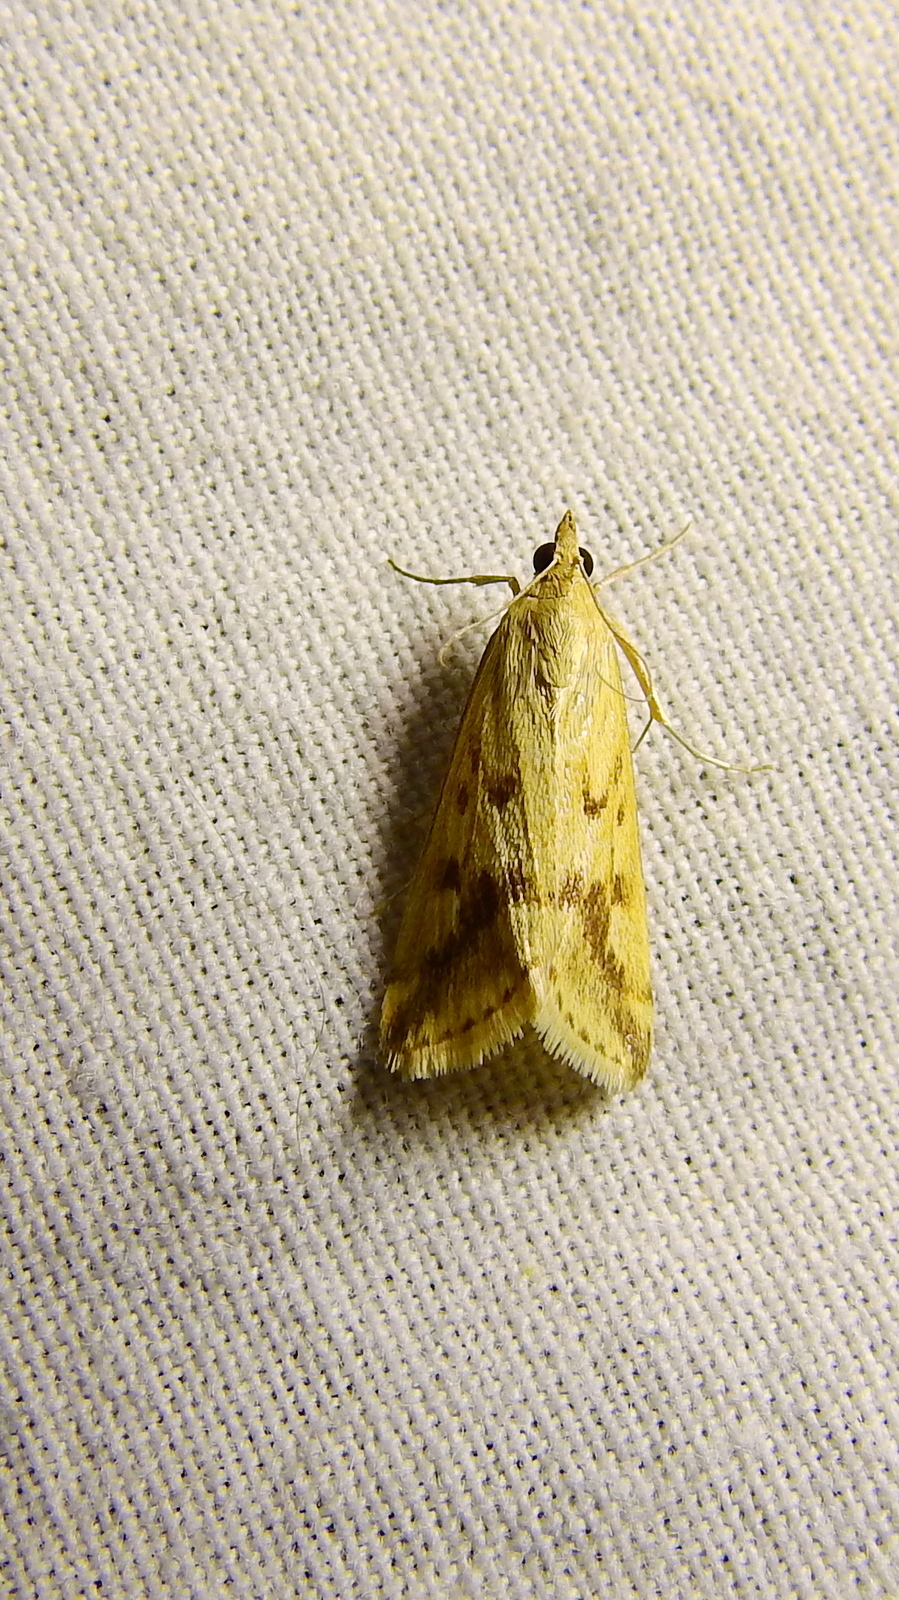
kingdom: Animalia
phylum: Arthropoda
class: Insecta
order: Lepidoptera
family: Crambidae
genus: Achyra
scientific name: Achyra bifidalis
